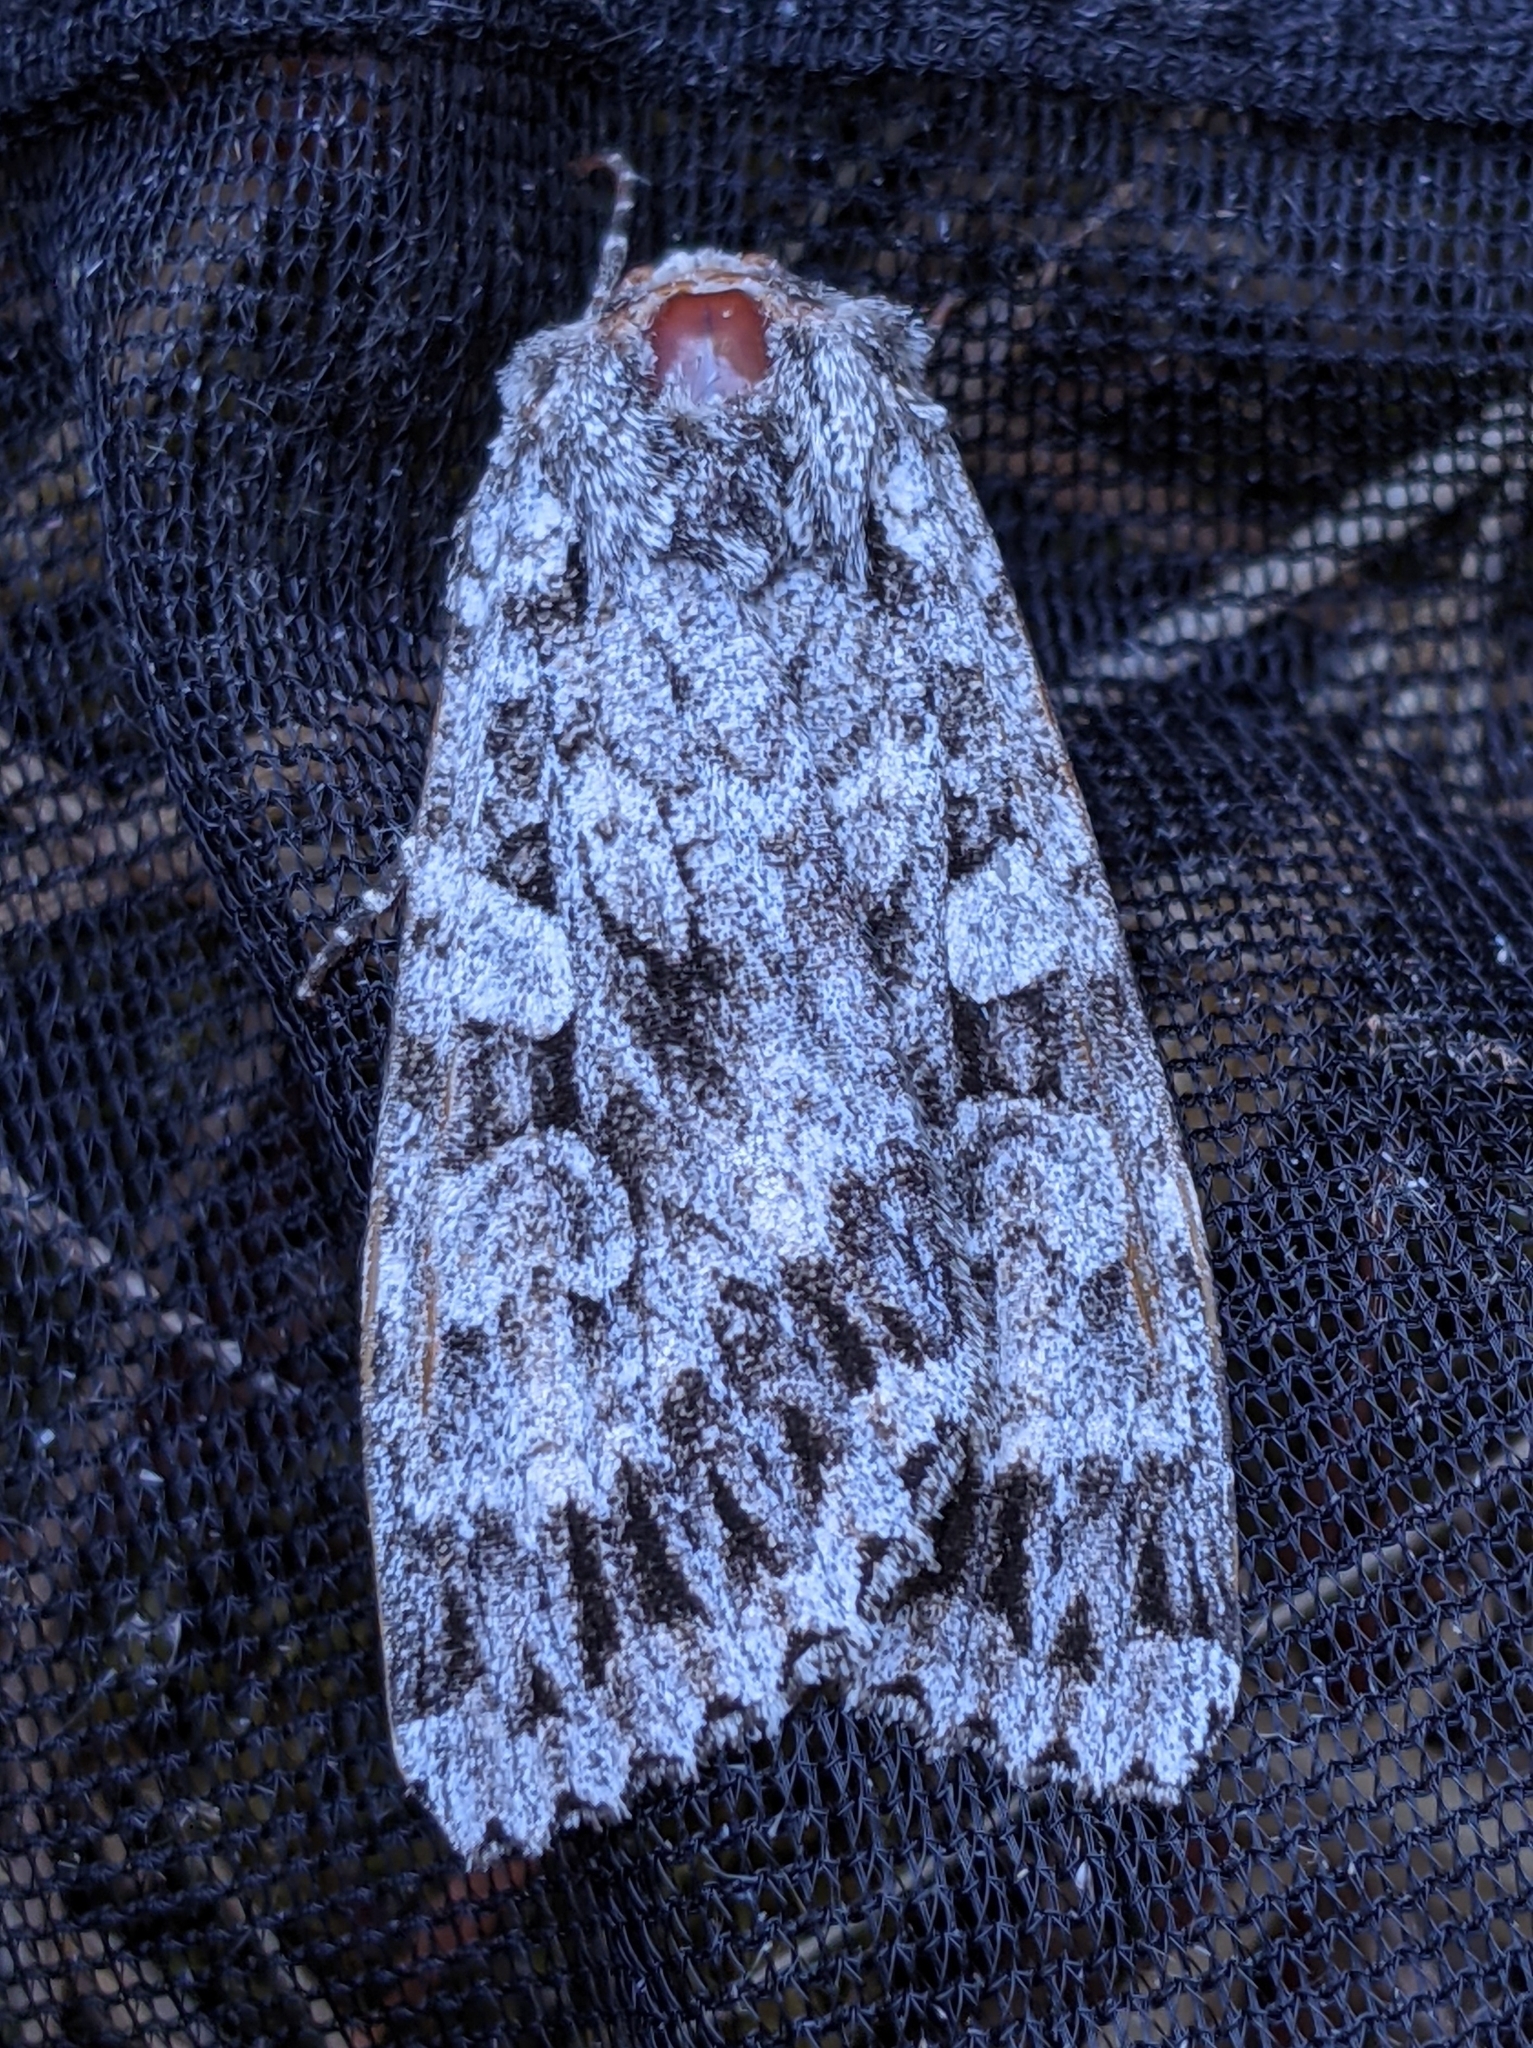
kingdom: Animalia
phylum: Arthropoda
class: Insecta
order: Lepidoptera
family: Noctuidae
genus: Eurois
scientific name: Eurois occulta
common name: Great brocade
